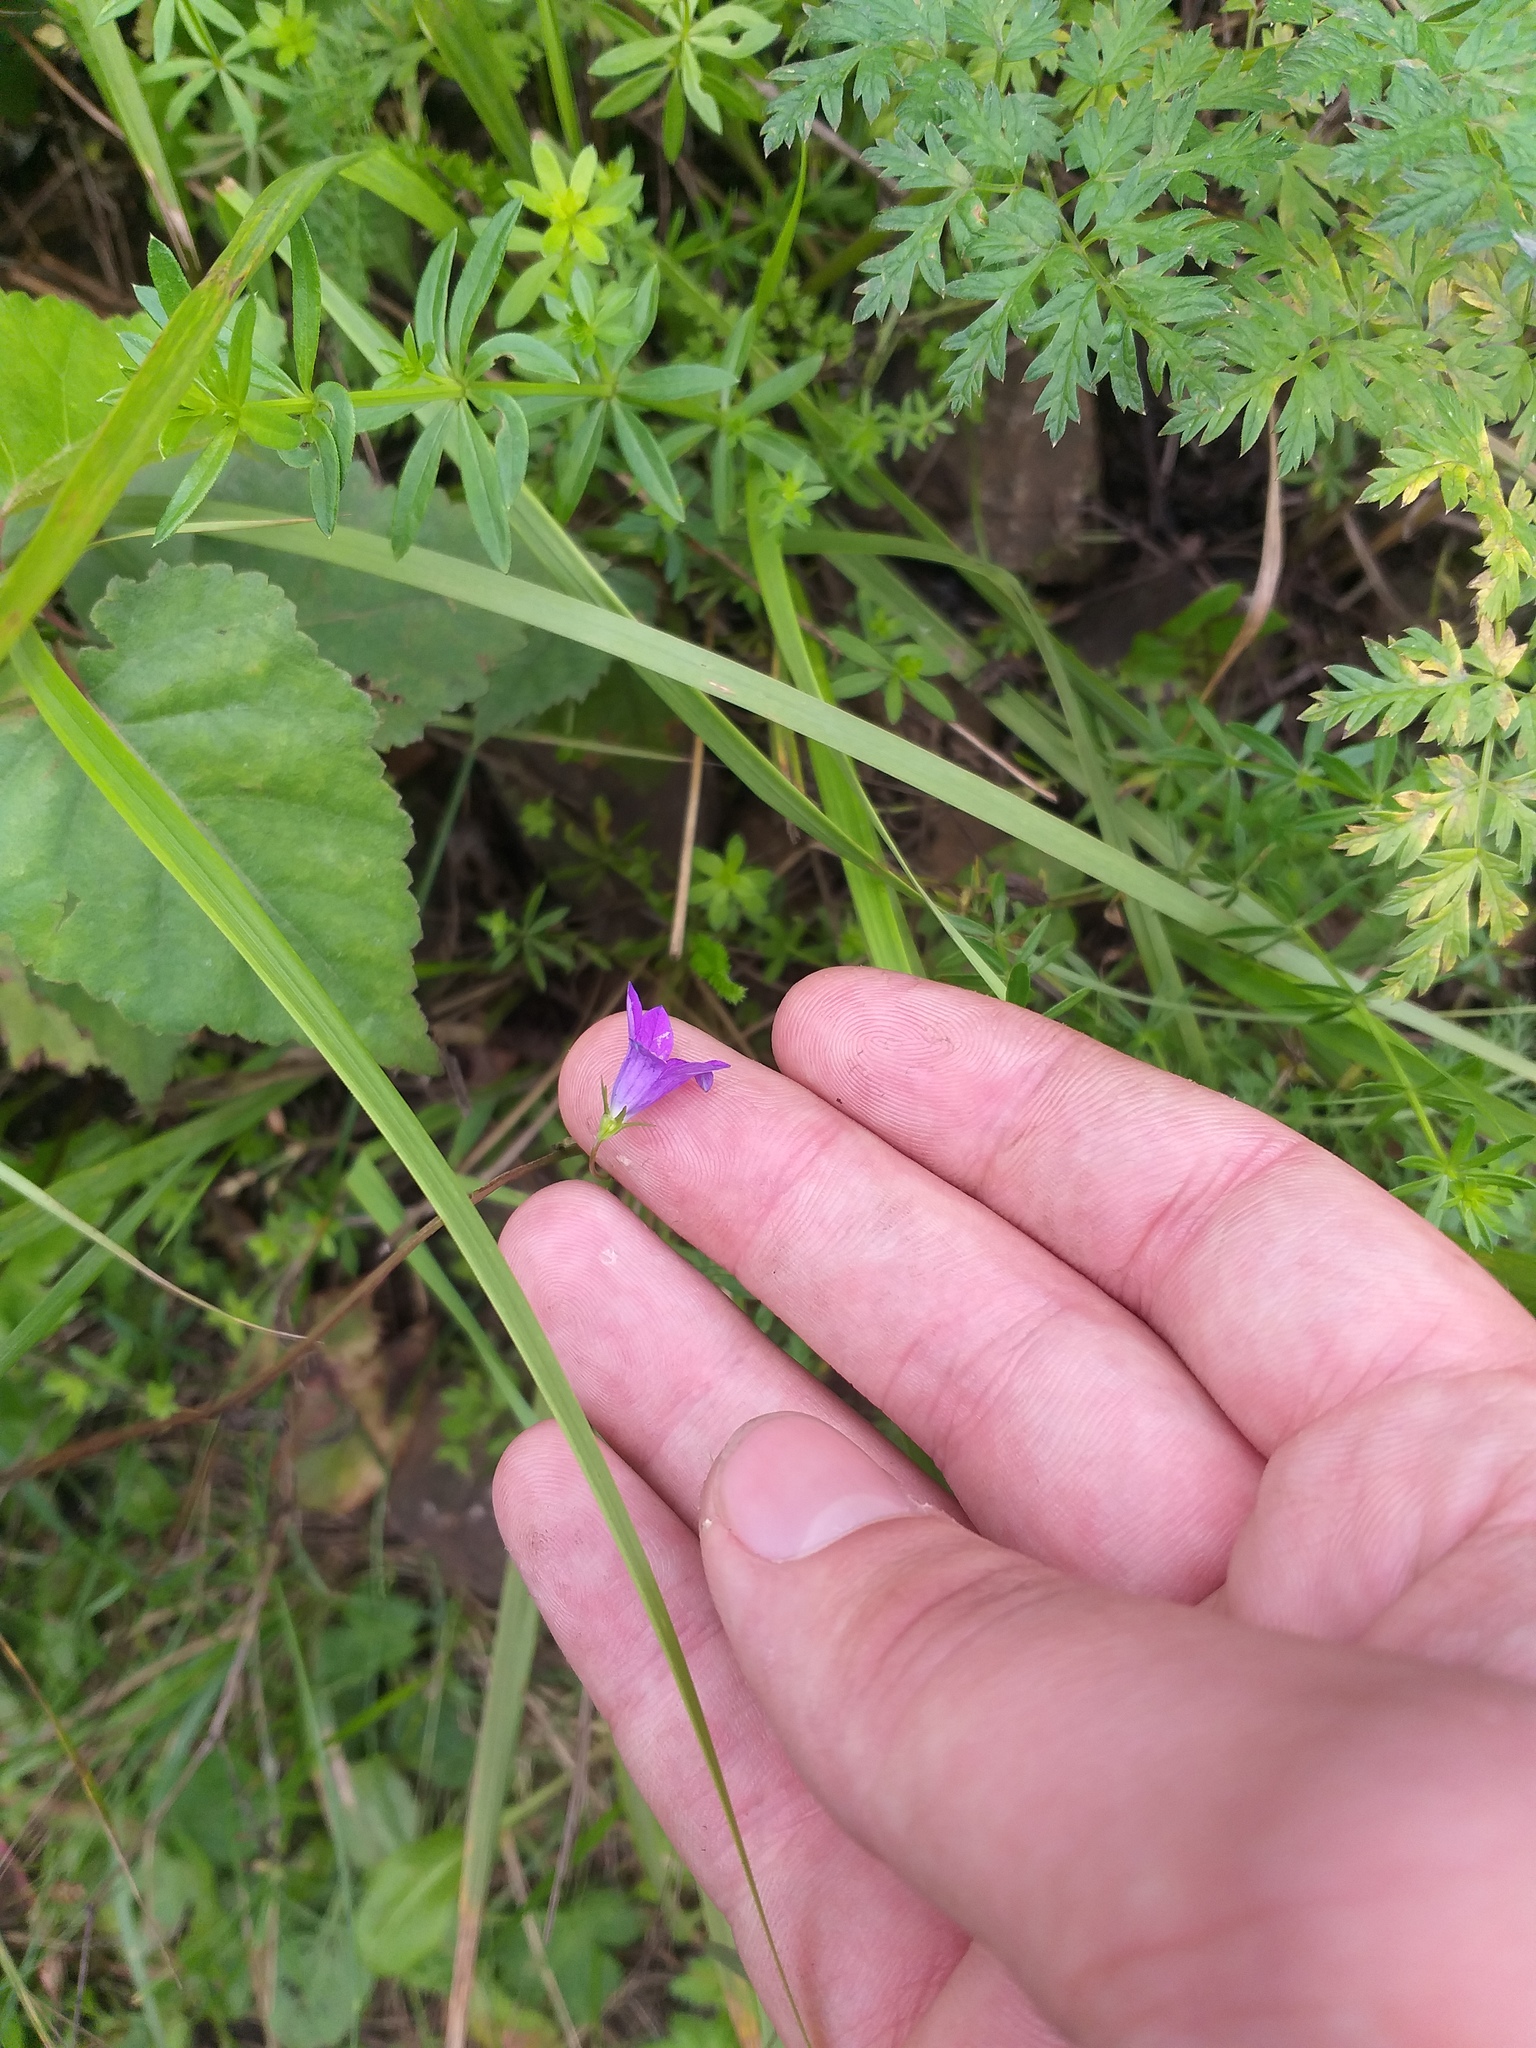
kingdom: Plantae
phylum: Tracheophyta
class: Magnoliopsida
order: Asterales
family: Campanulaceae
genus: Campanula
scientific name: Campanula patula
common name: Spreading bellflower
